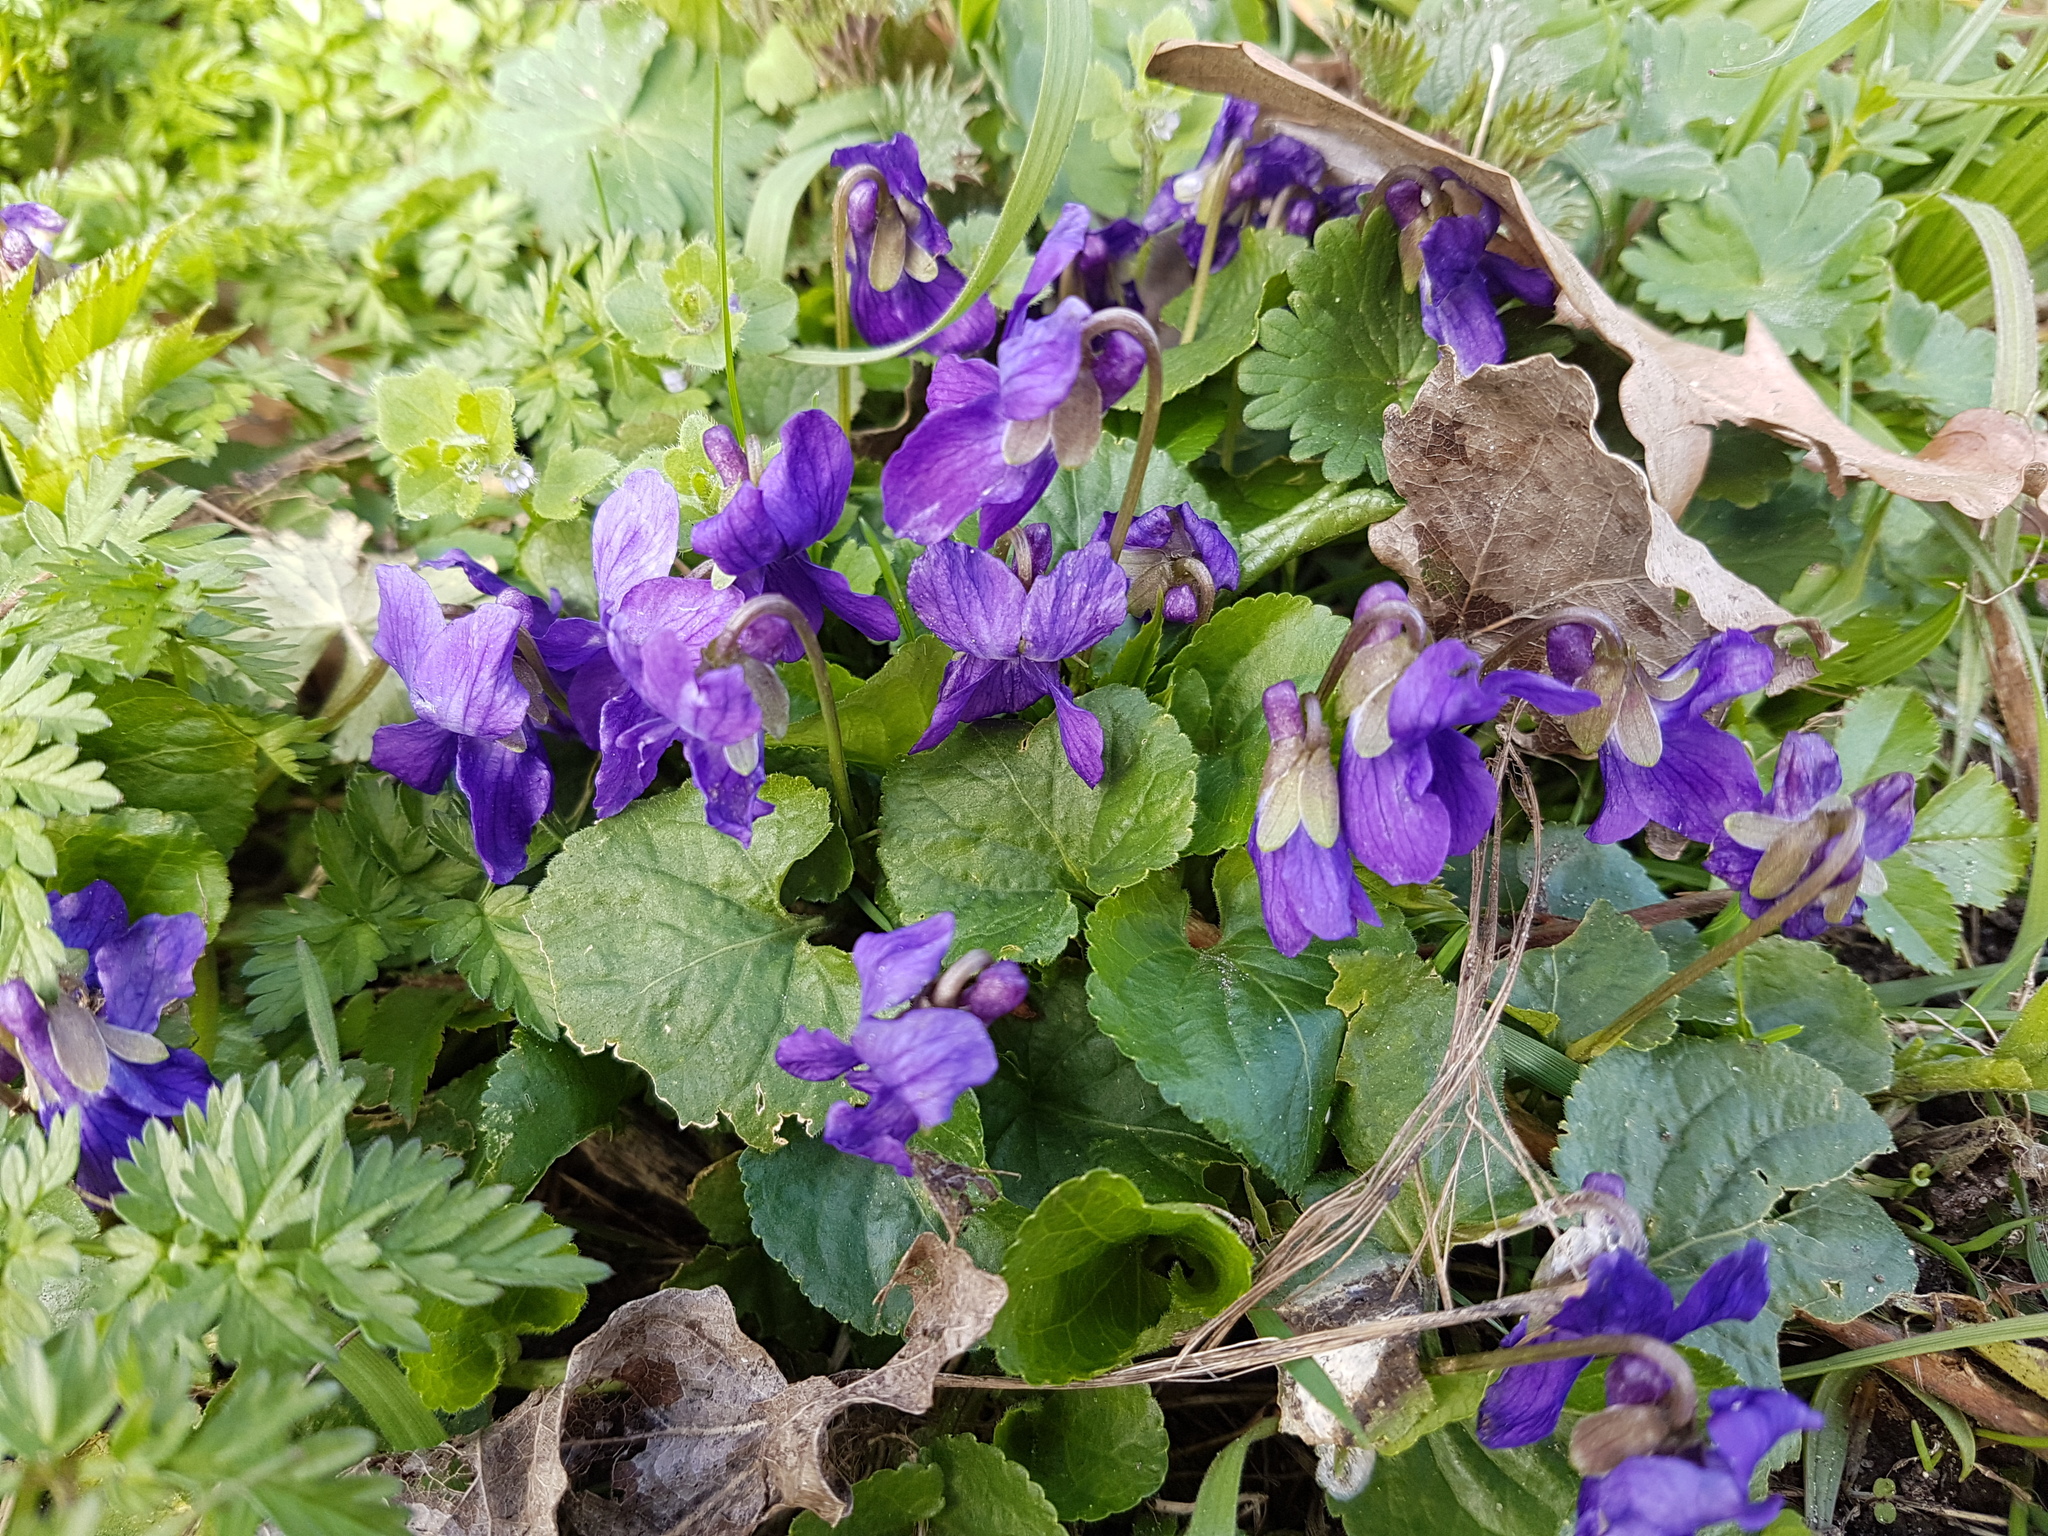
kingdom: Plantae
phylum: Tracheophyta
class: Magnoliopsida
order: Malpighiales
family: Violaceae
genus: Viola
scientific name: Viola odorata
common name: Sweet violet
